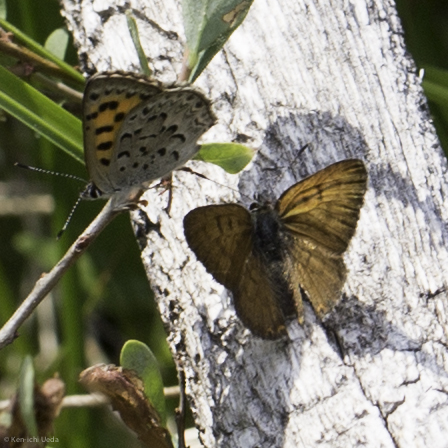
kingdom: Animalia
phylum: Arthropoda
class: Insecta
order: Lepidoptera
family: Lycaenidae
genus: Tharsalea
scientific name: Tharsalea mariposa
